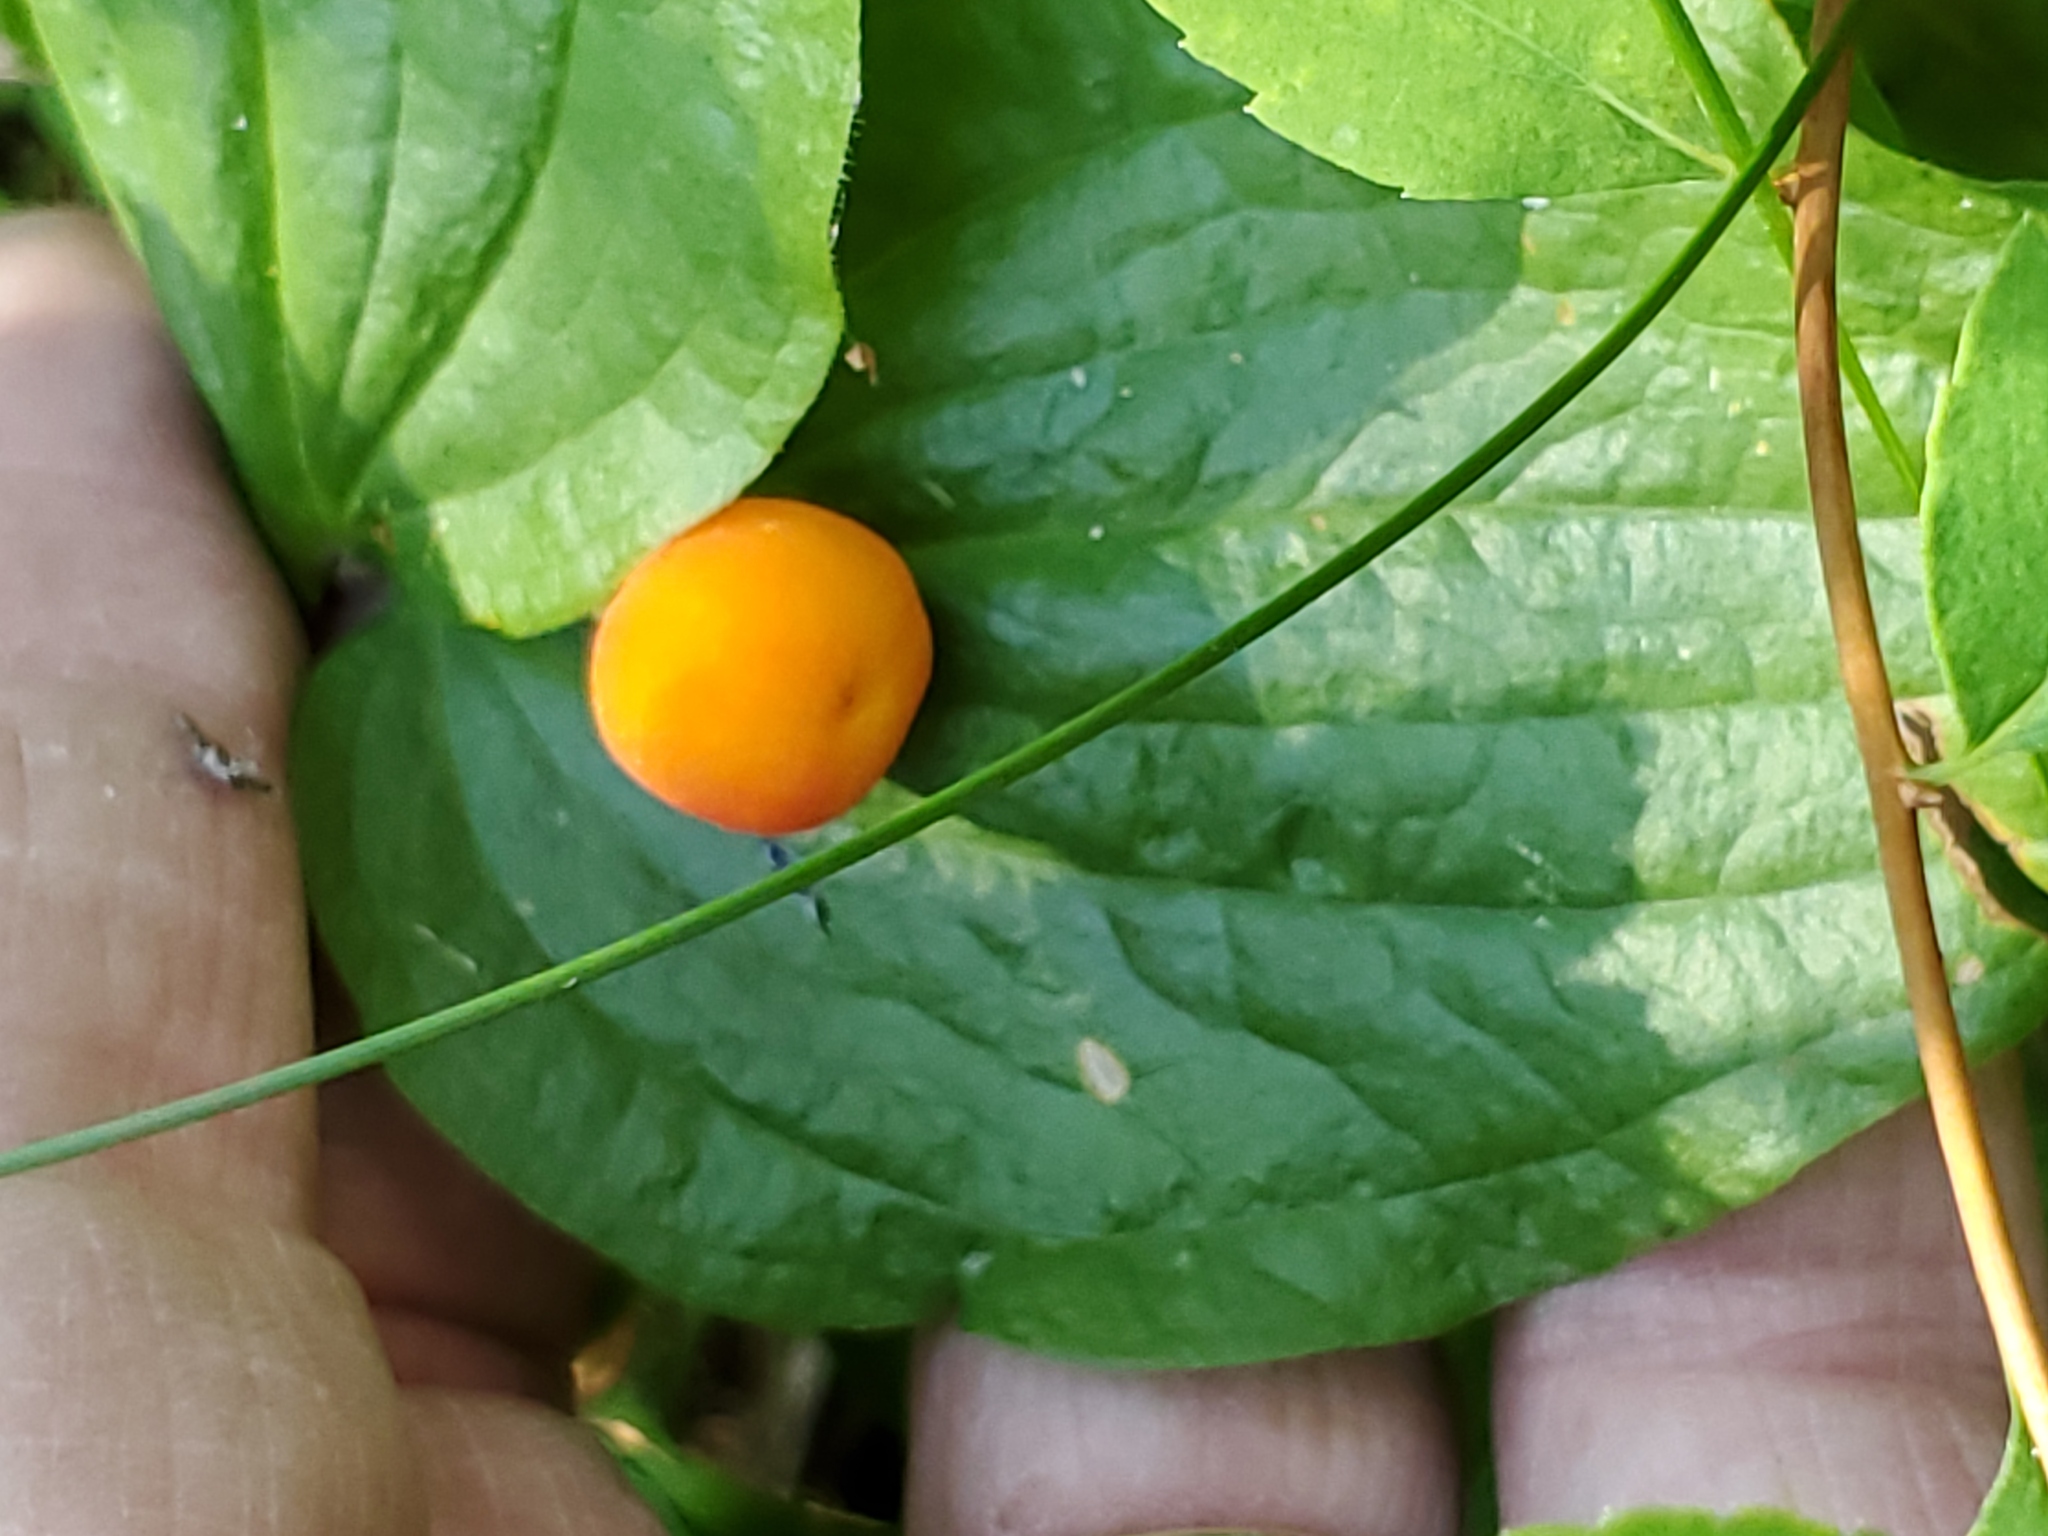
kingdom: Plantae
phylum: Tracheophyta
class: Liliopsida
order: Liliales
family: Liliaceae
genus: Prosartes
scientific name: Prosartes trachycarpa
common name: Rough-fruit fairy-bells
